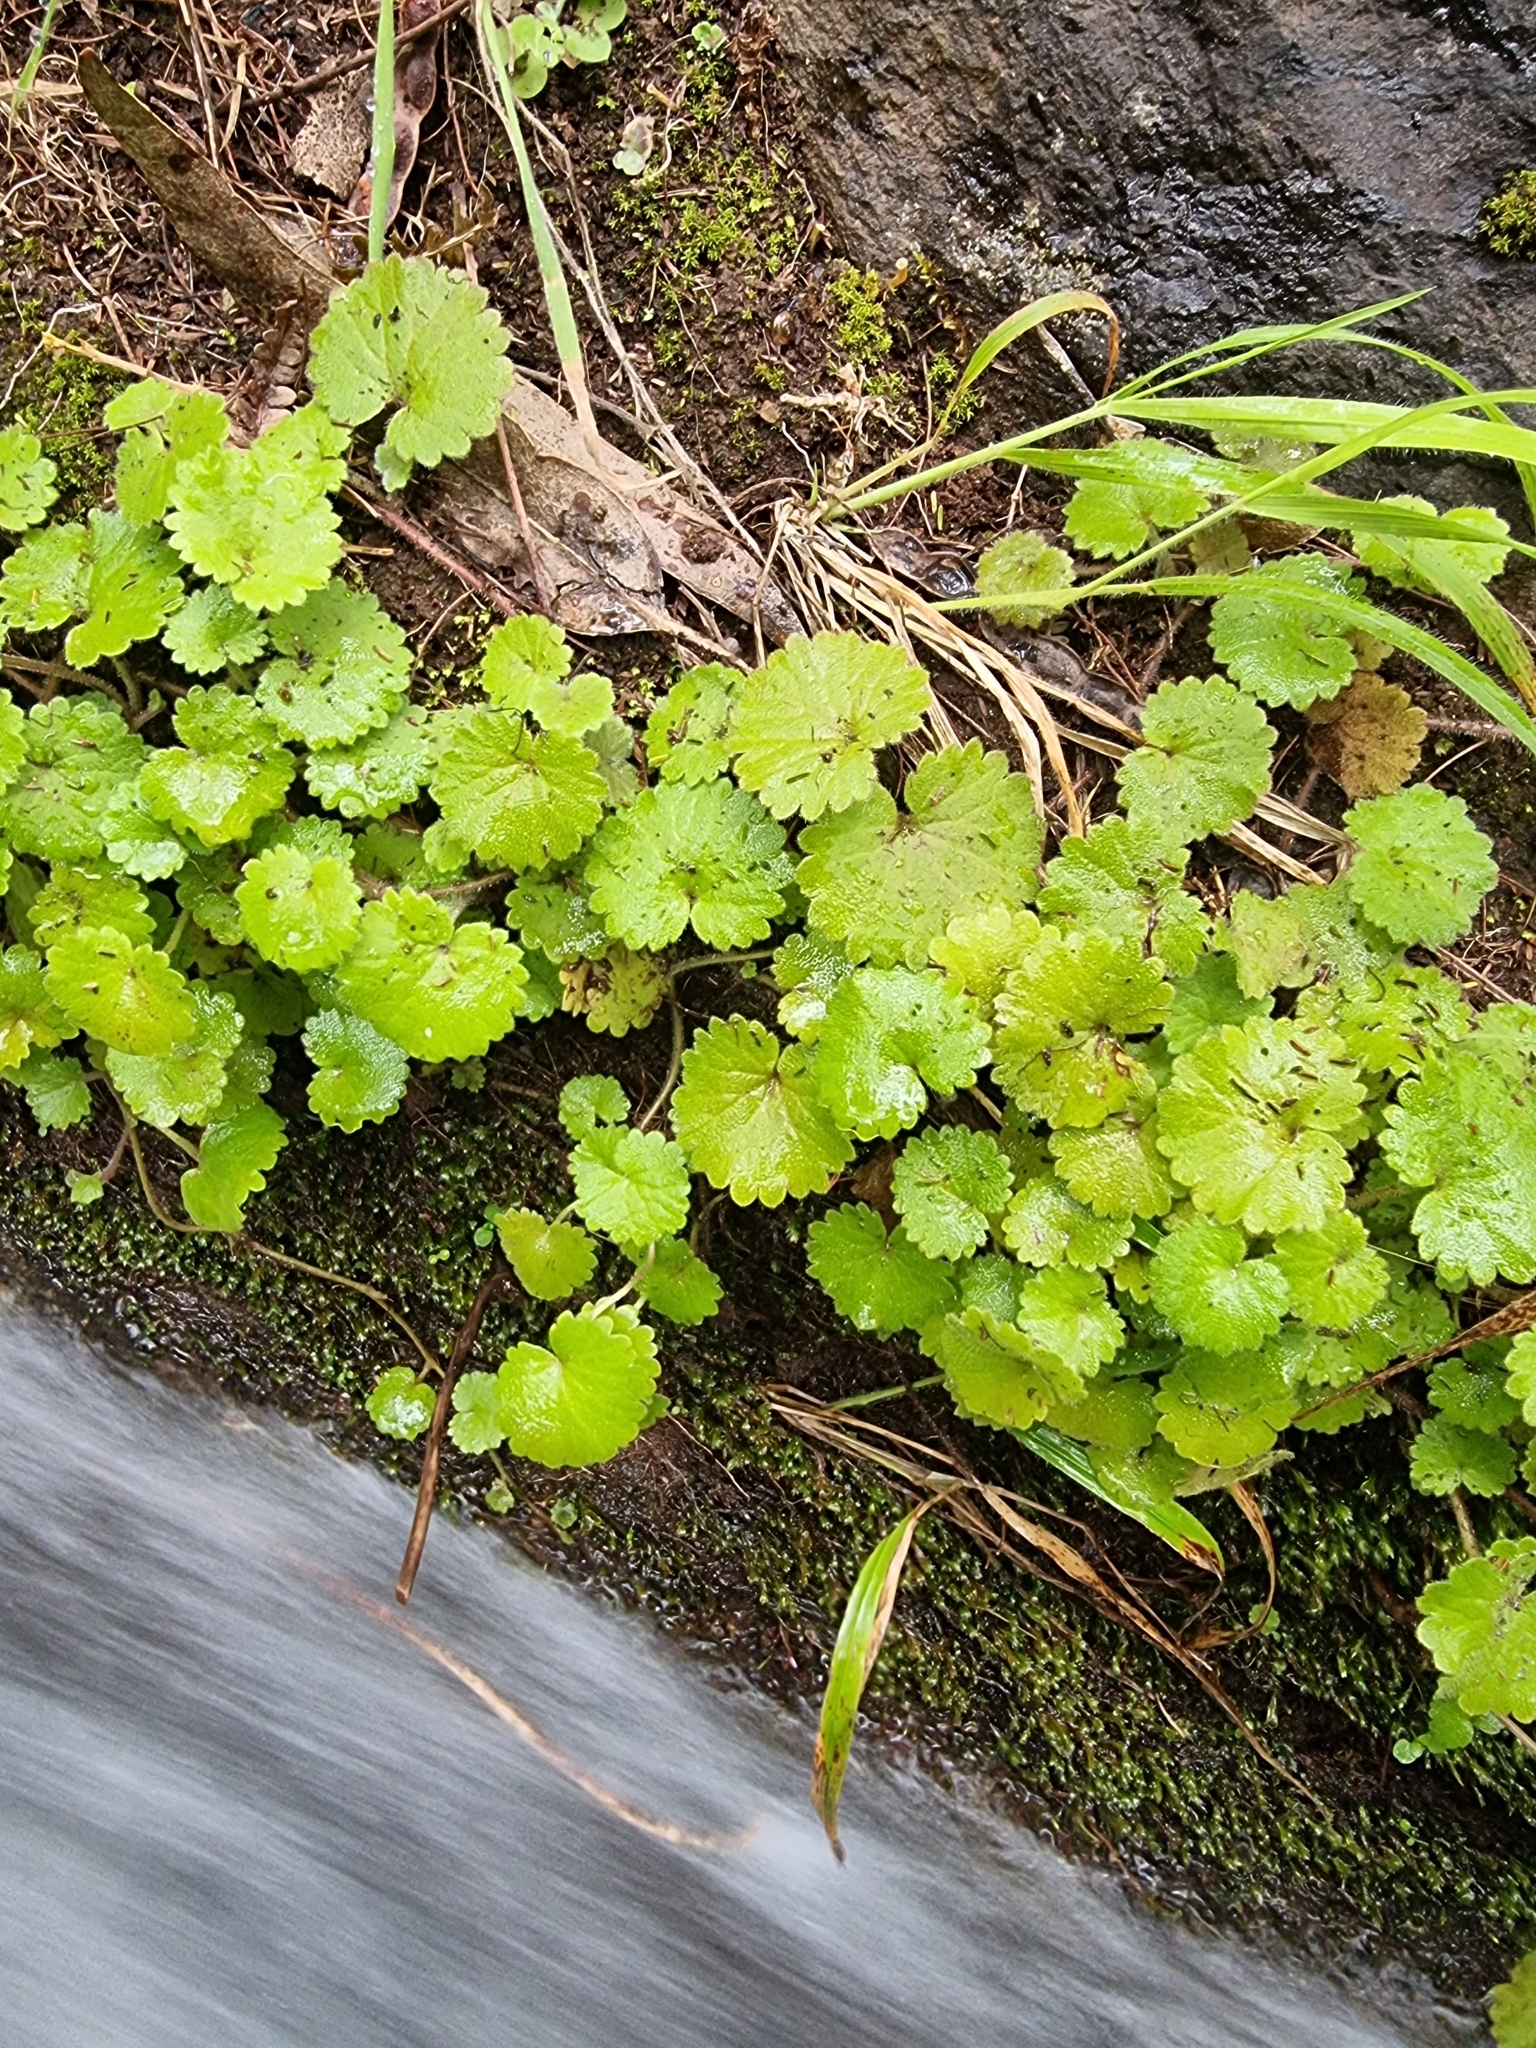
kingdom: Plantae
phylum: Tracheophyta
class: Magnoliopsida
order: Lamiales
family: Plantaginaceae
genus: Sibthorpia
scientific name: Sibthorpia peregrina
